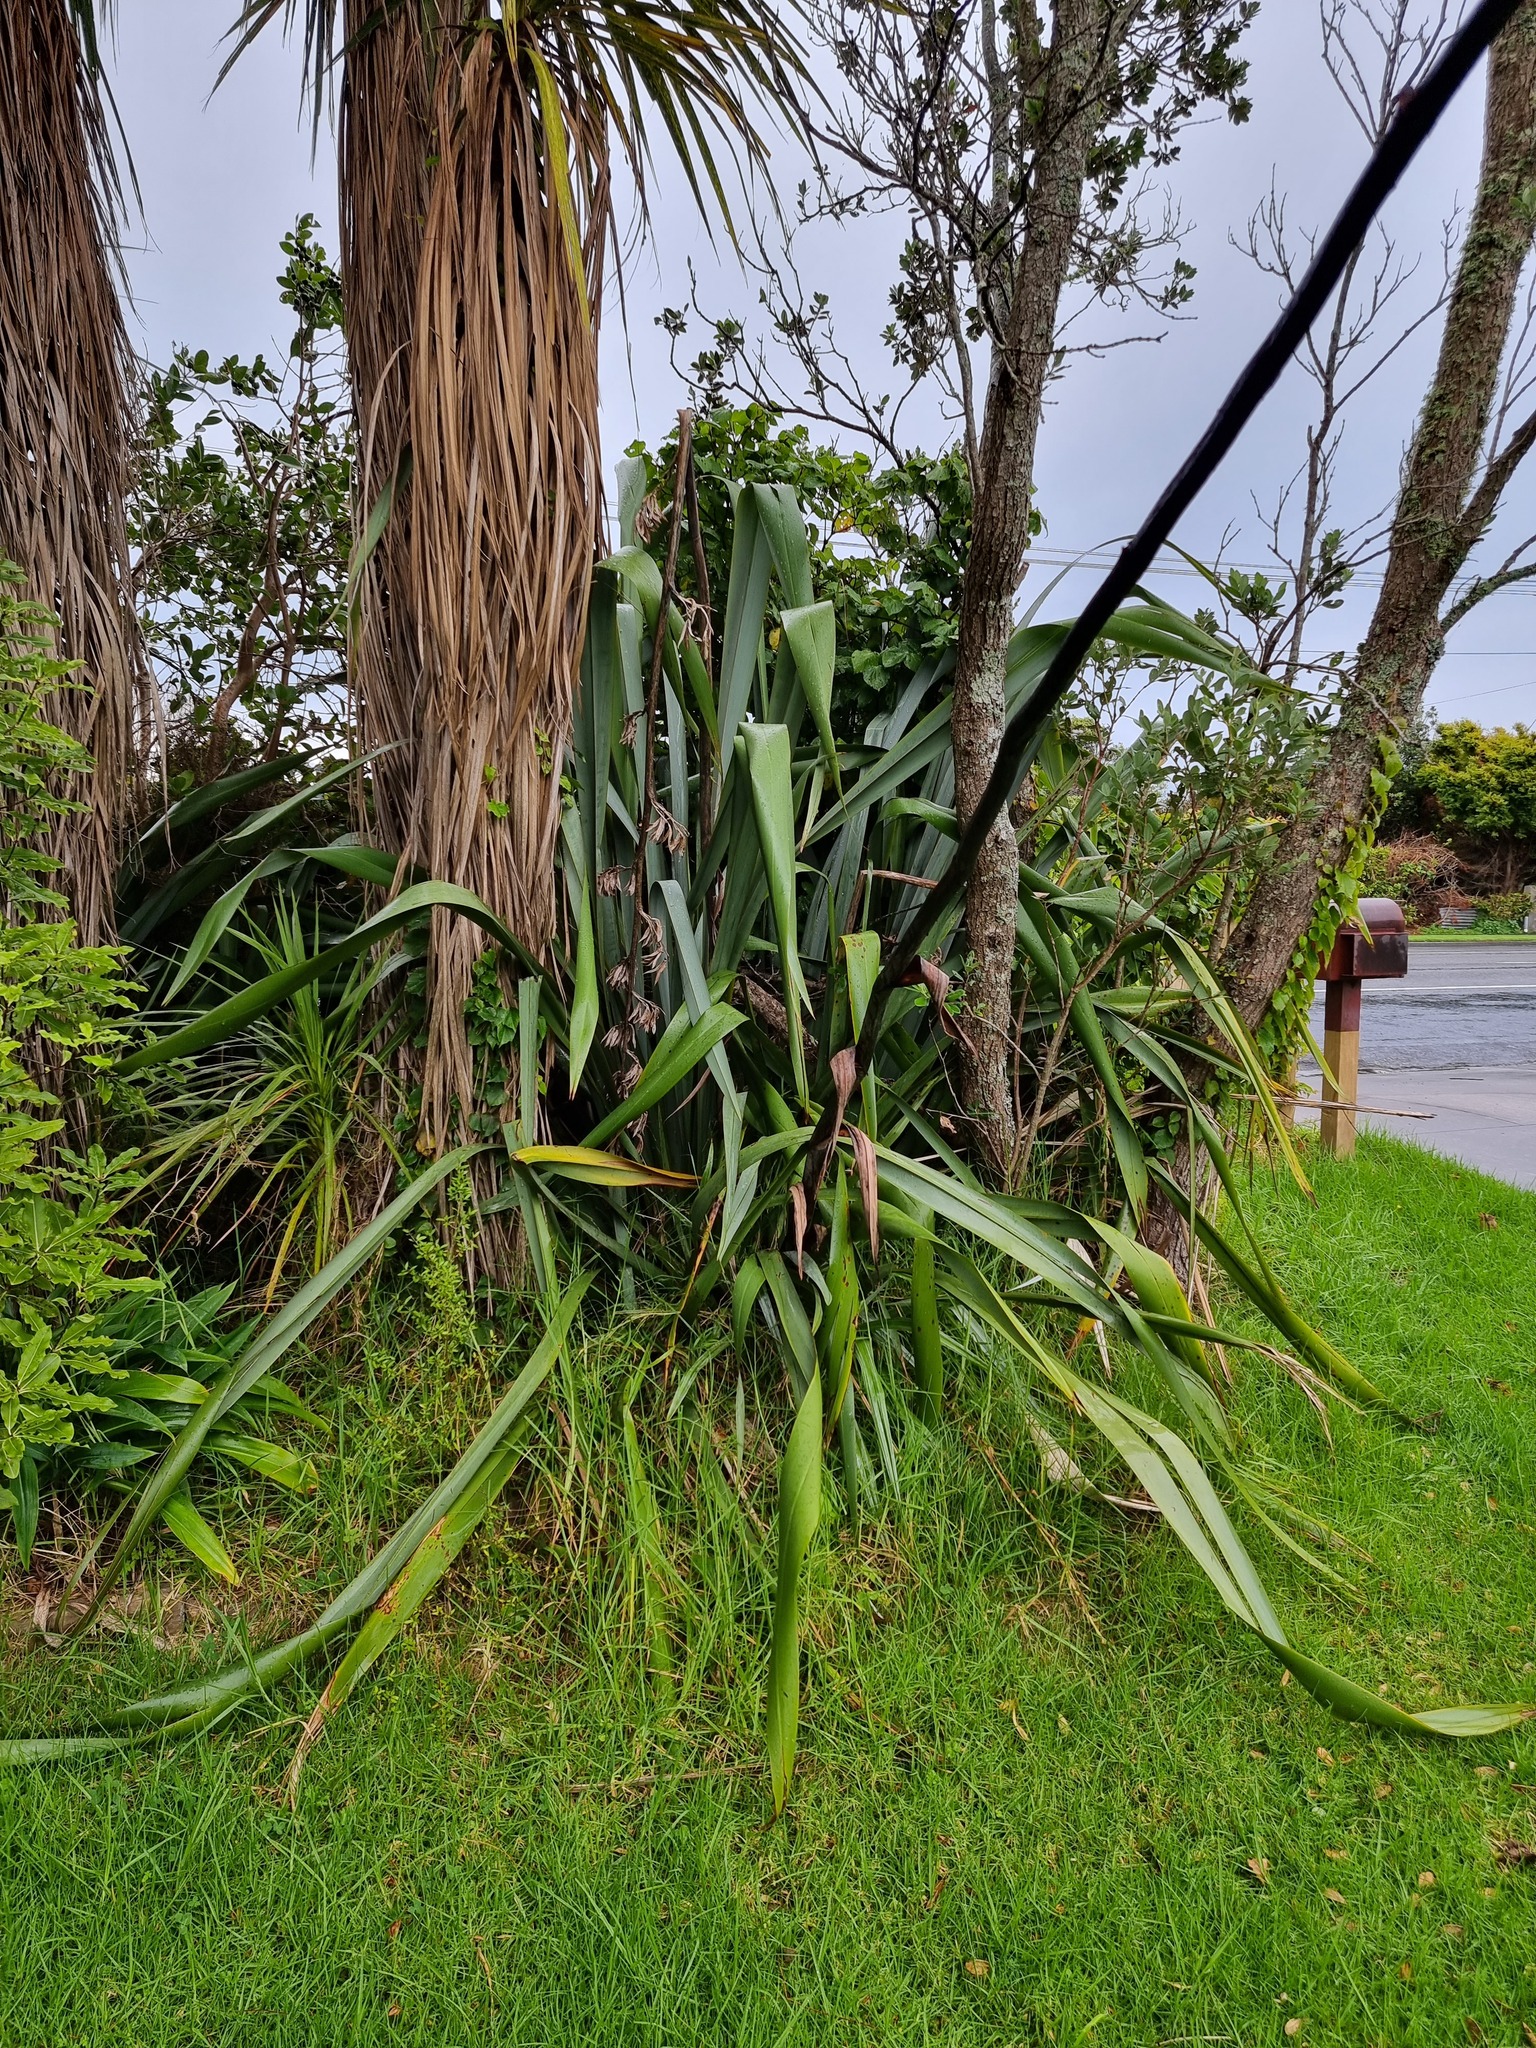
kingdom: Plantae
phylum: Tracheophyta
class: Liliopsida
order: Asparagales
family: Asphodelaceae
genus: Phormium
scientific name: Phormium tenax
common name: New zealand flax
